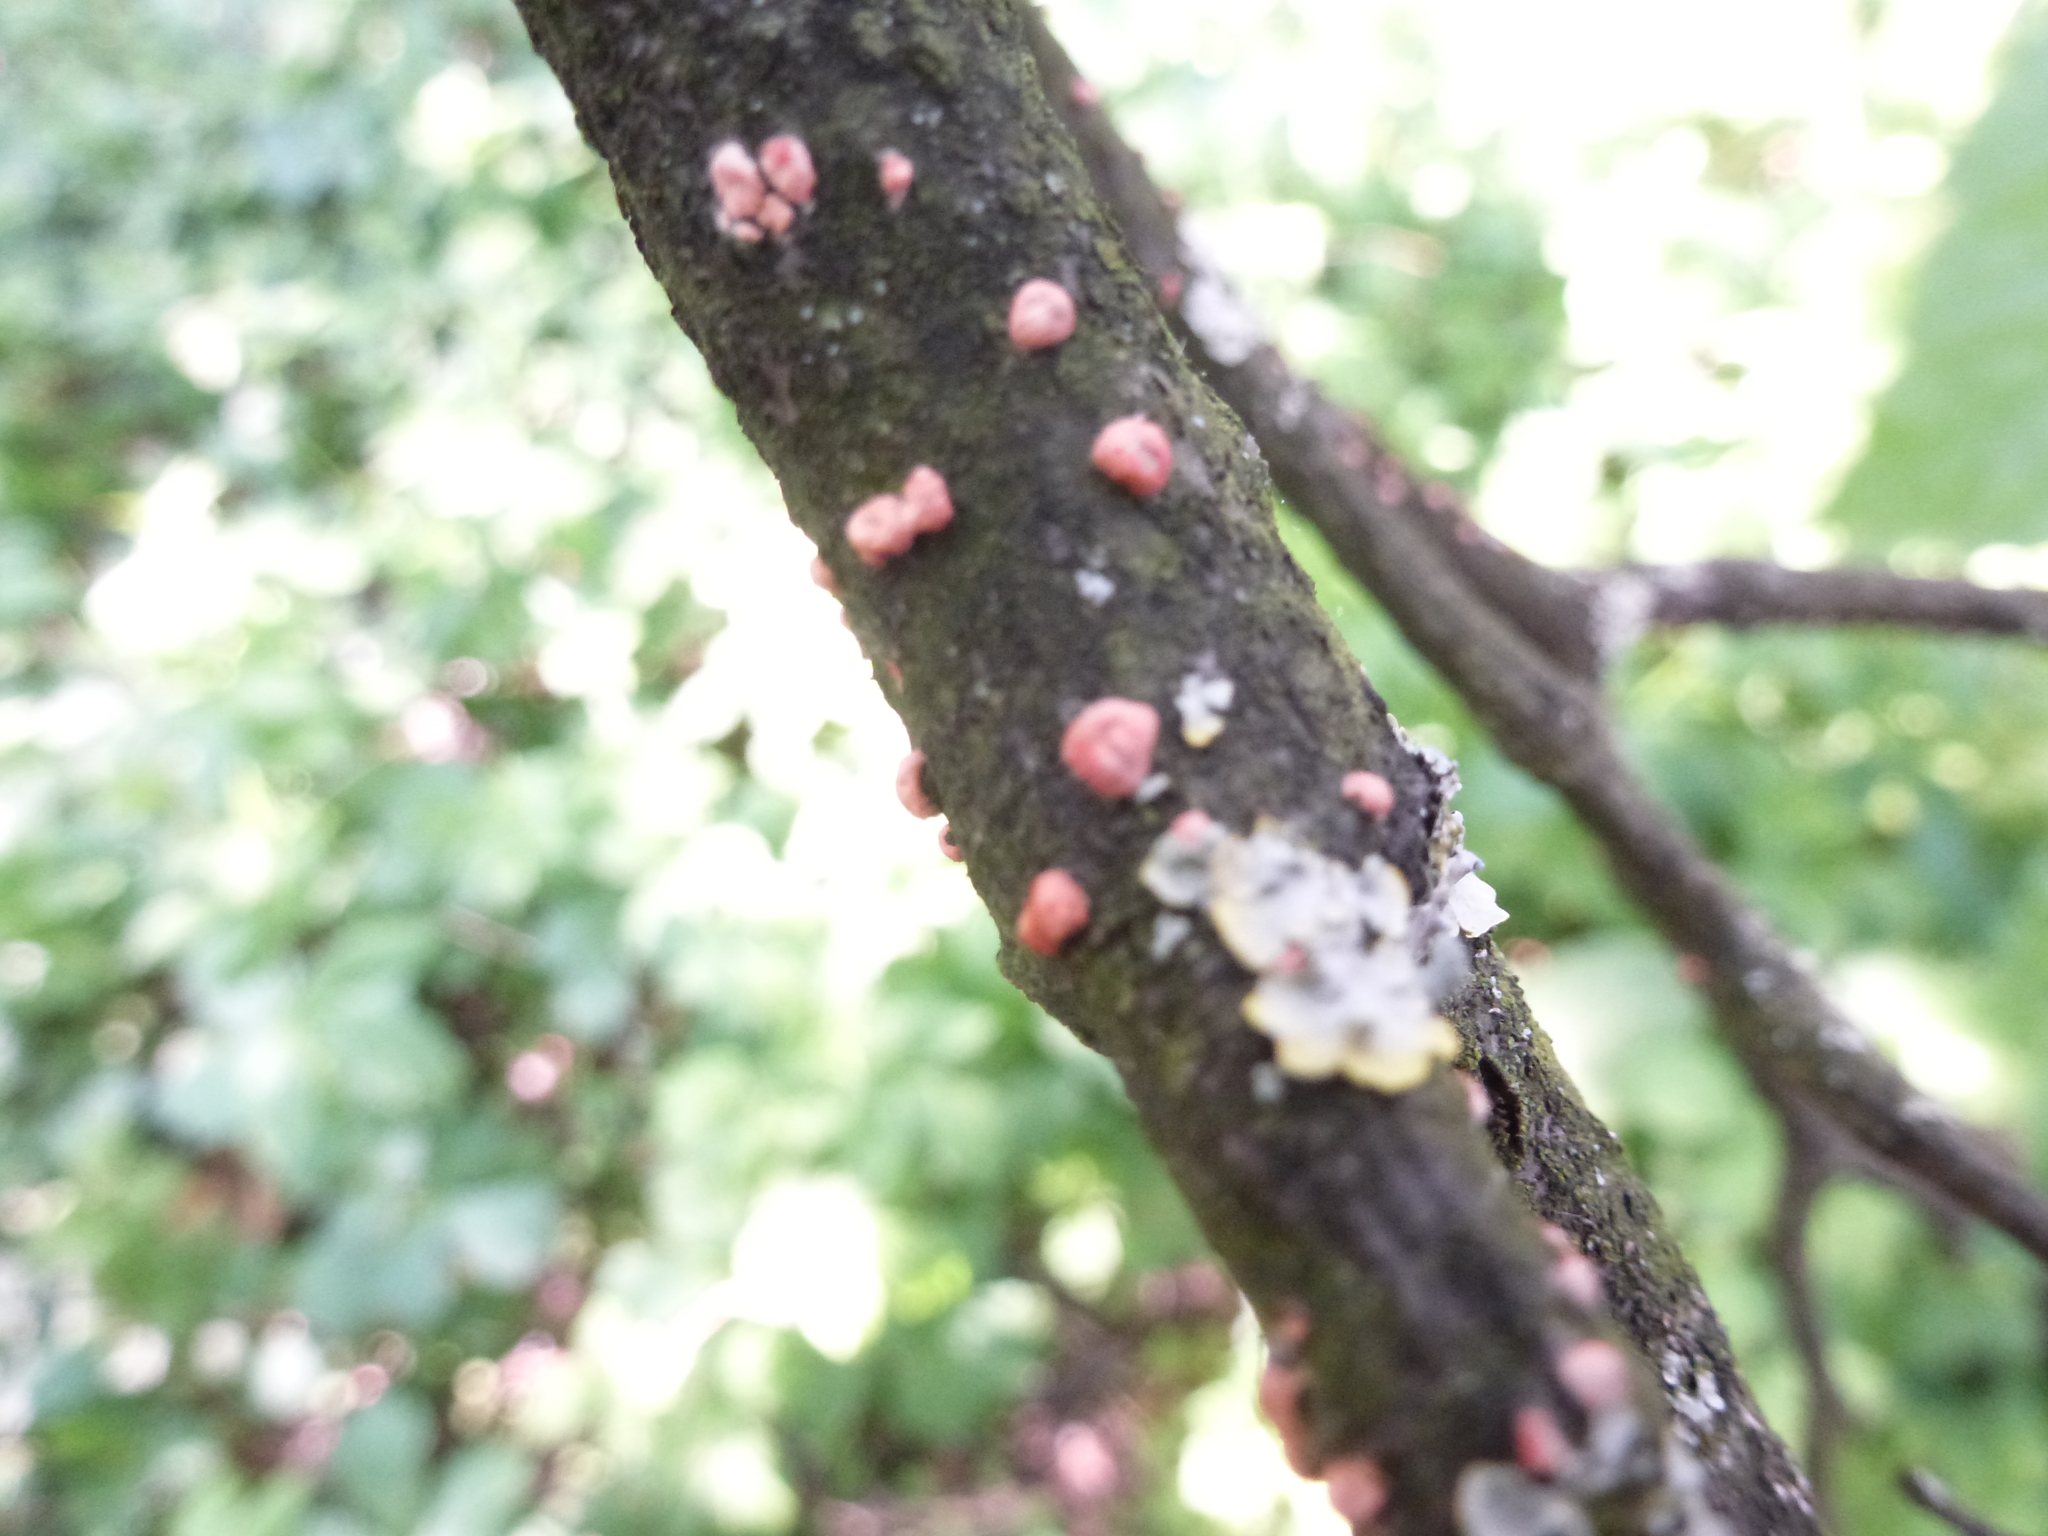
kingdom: Fungi
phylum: Ascomycota
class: Sordariomycetes
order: Hypocreales
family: Nectriaceae
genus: Nectria
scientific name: Nectria cinnabarina
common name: Coral spot
